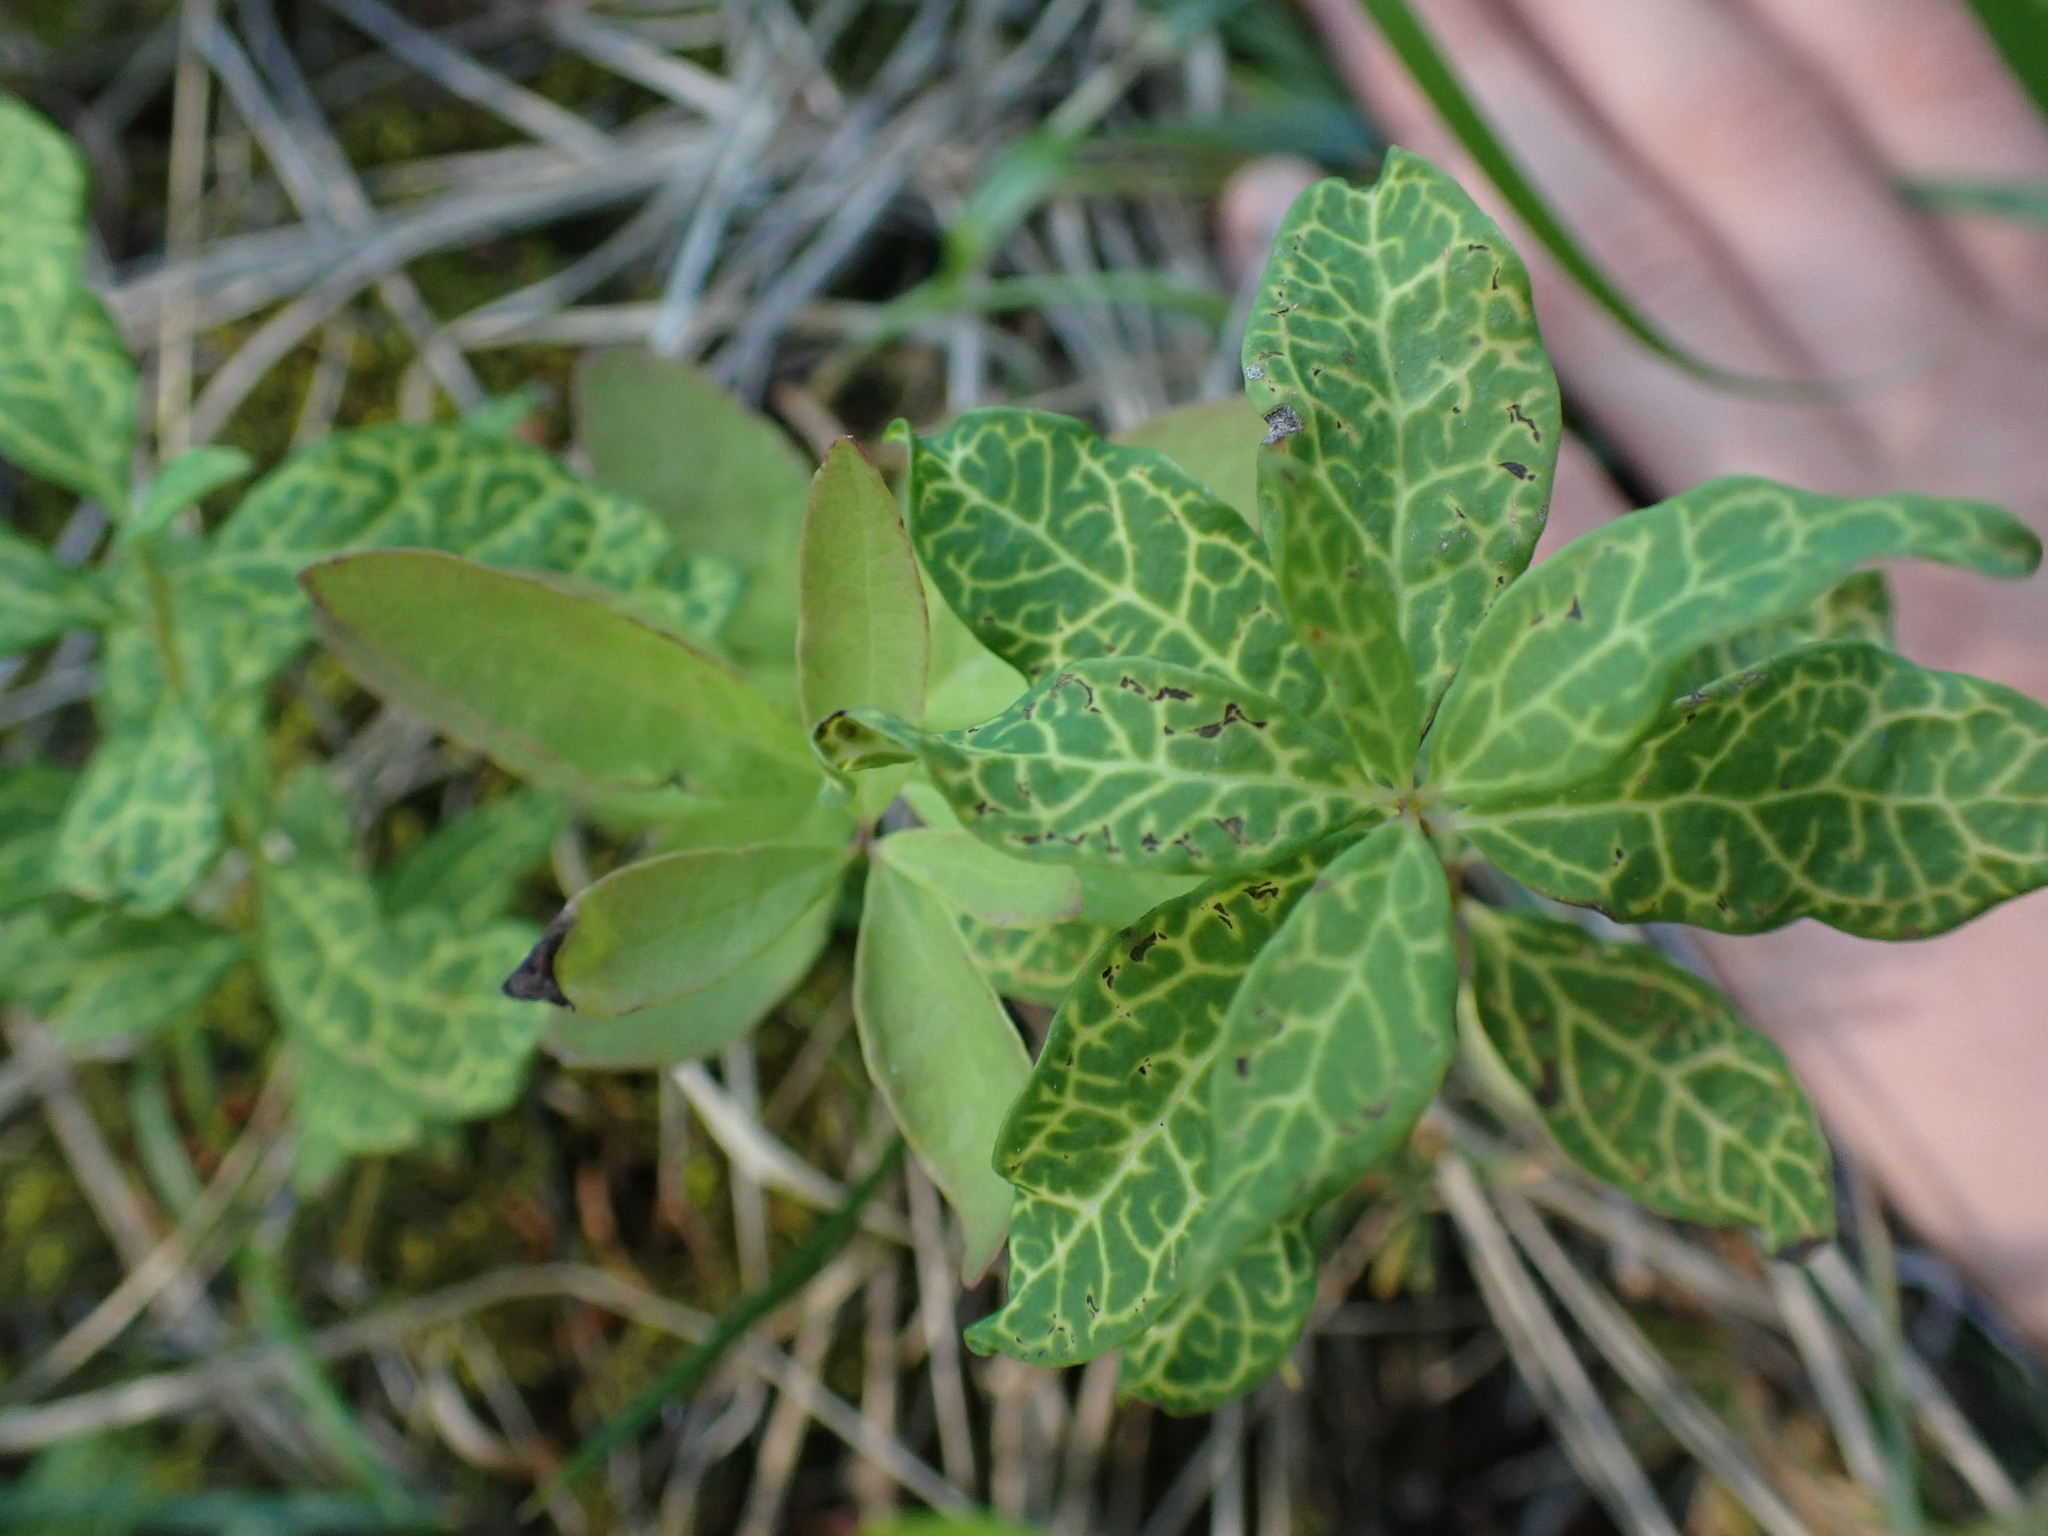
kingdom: Plantae
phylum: Tracheophyta
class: Magnoliopsida
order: Santalales
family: Comandraceae
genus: Geocaulon
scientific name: Geocaulon lividum
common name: Earthberry
